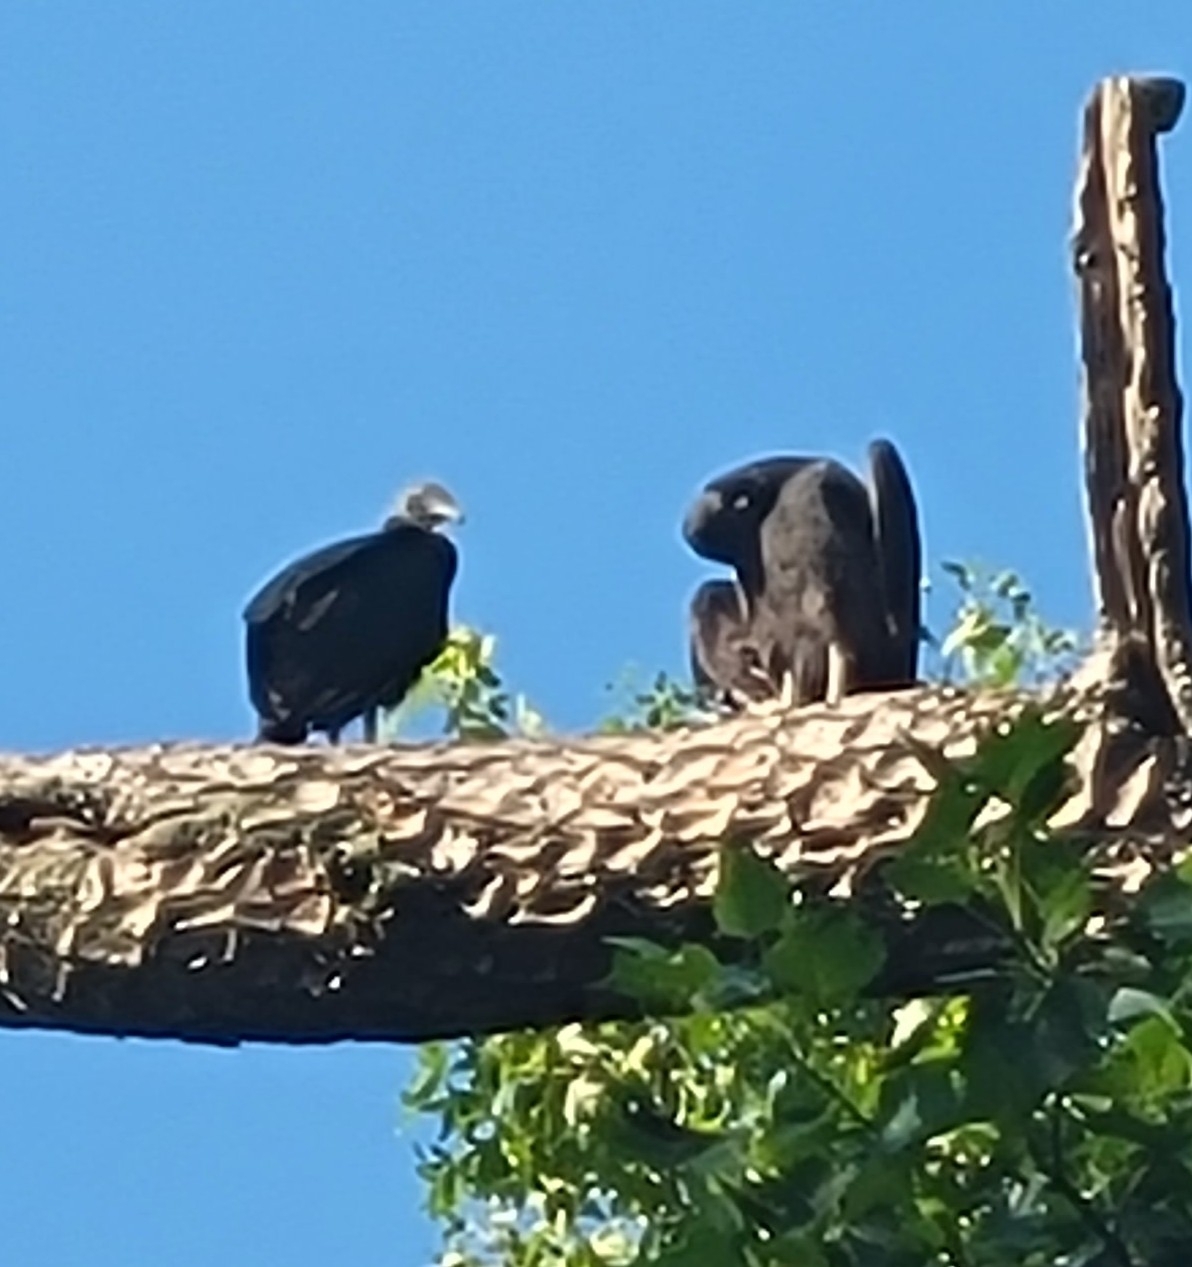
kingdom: Animalia
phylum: Chordata
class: Aves
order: Accipitriformes
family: Cathartidae
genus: Coragyps
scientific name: Coragyps atratus
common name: Black vulture
